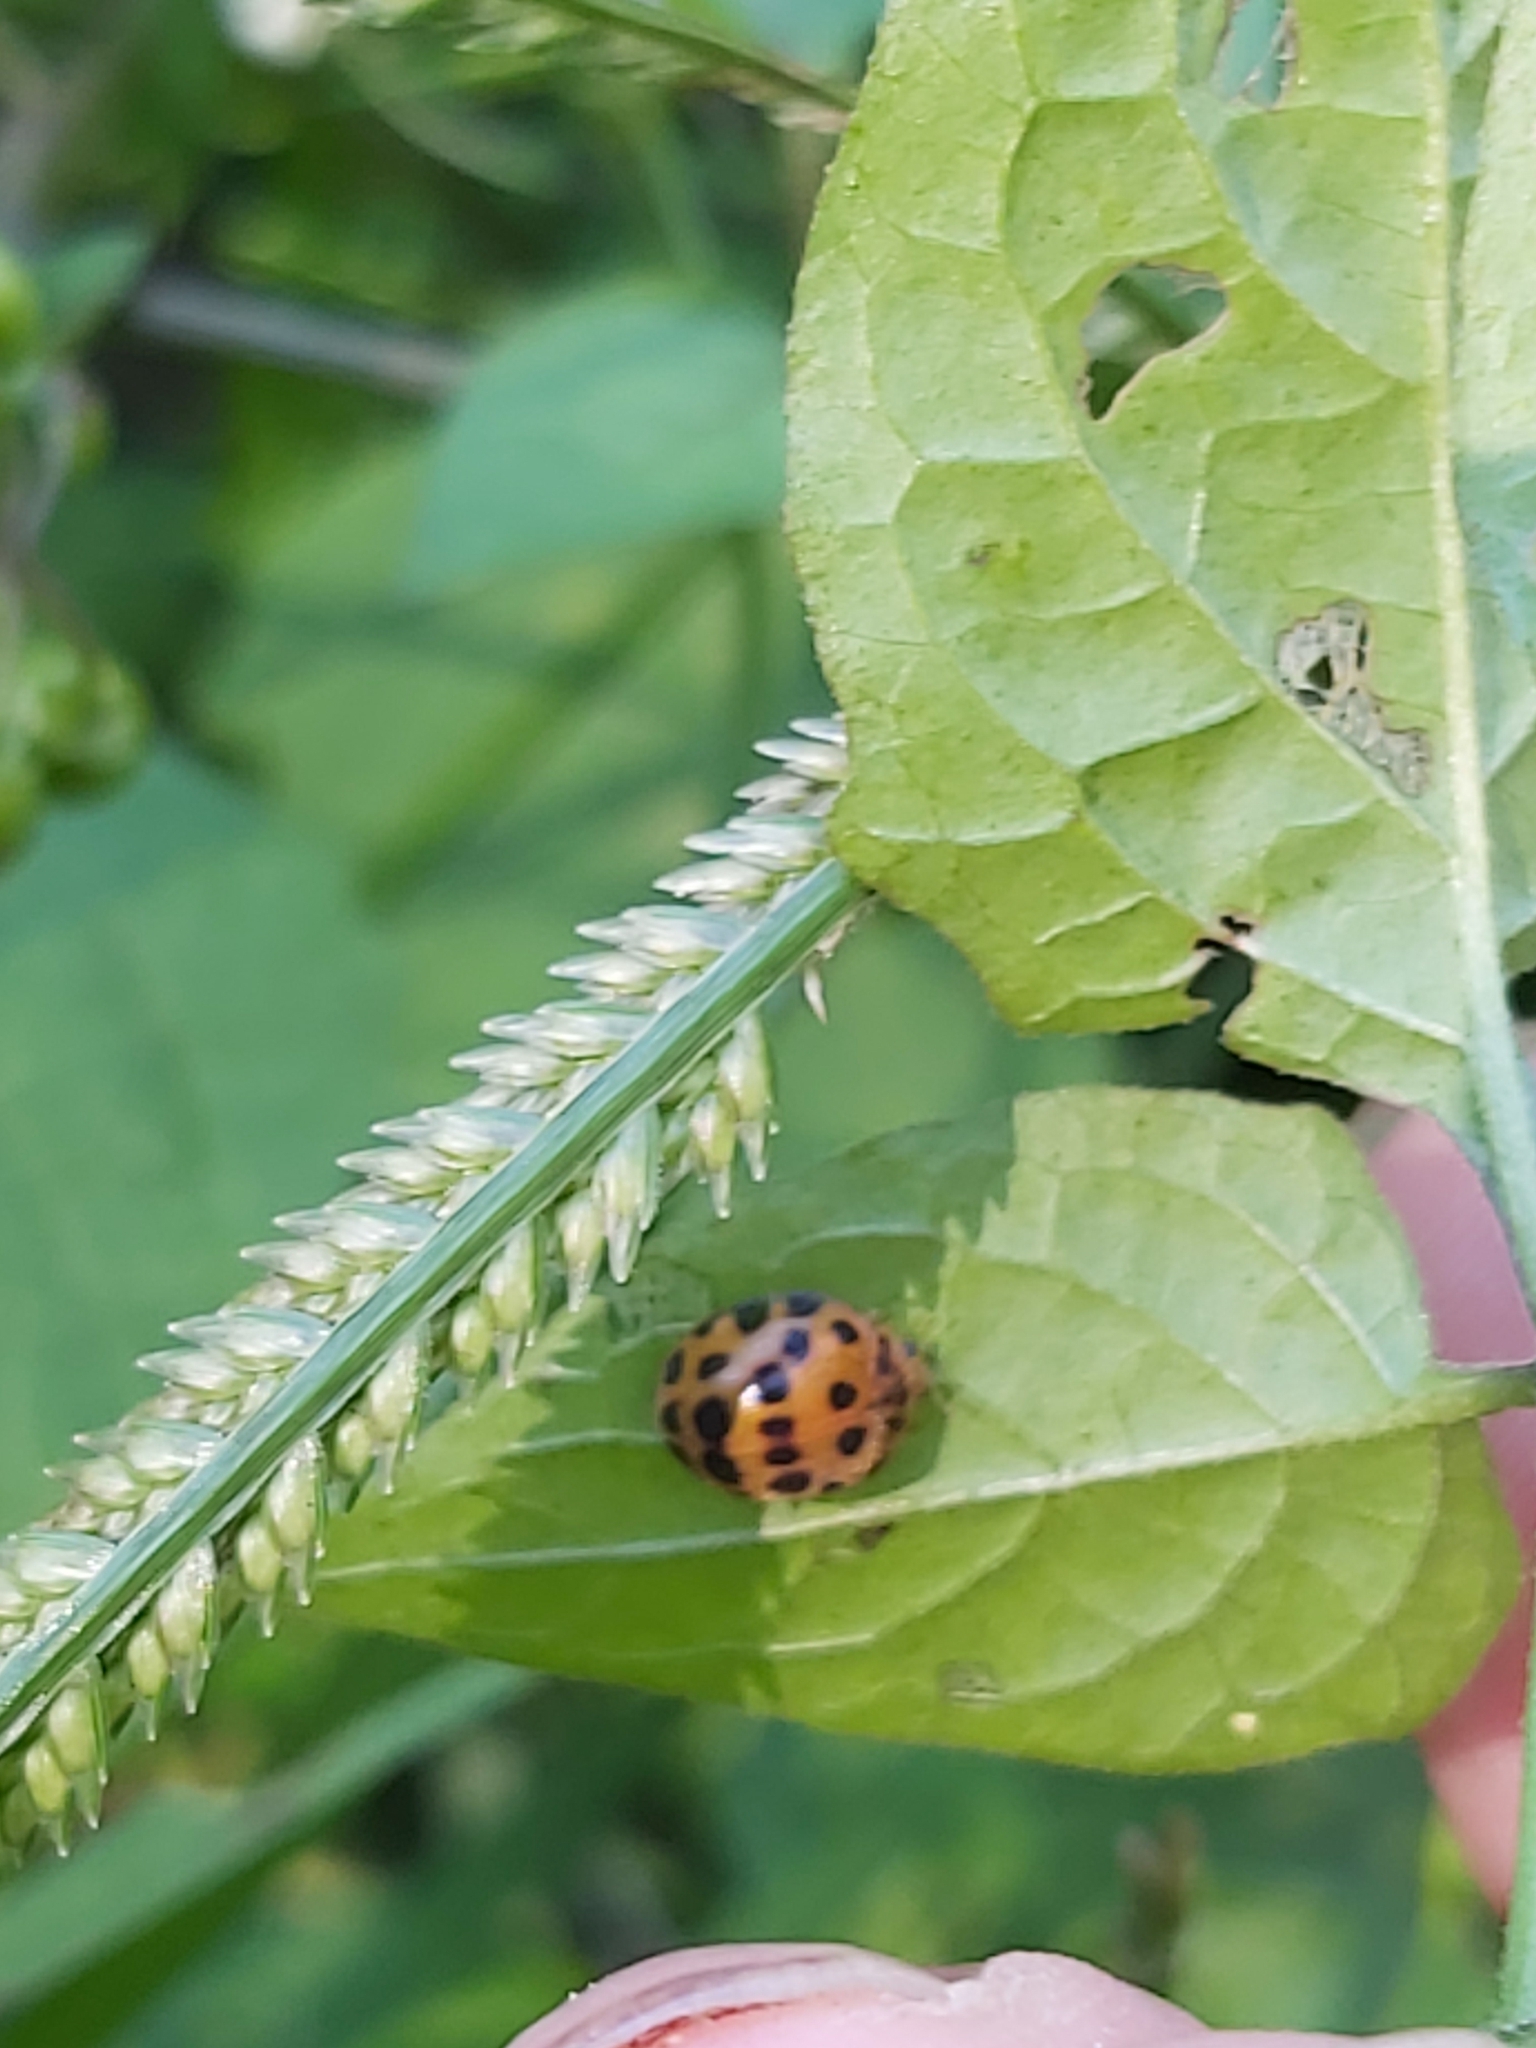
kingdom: Animalia
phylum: Arthropoda
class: Insecta
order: Coleoptera
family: Coccinellidae
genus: Henosepilachna
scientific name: Henosepilachna vigintioctopunctata
